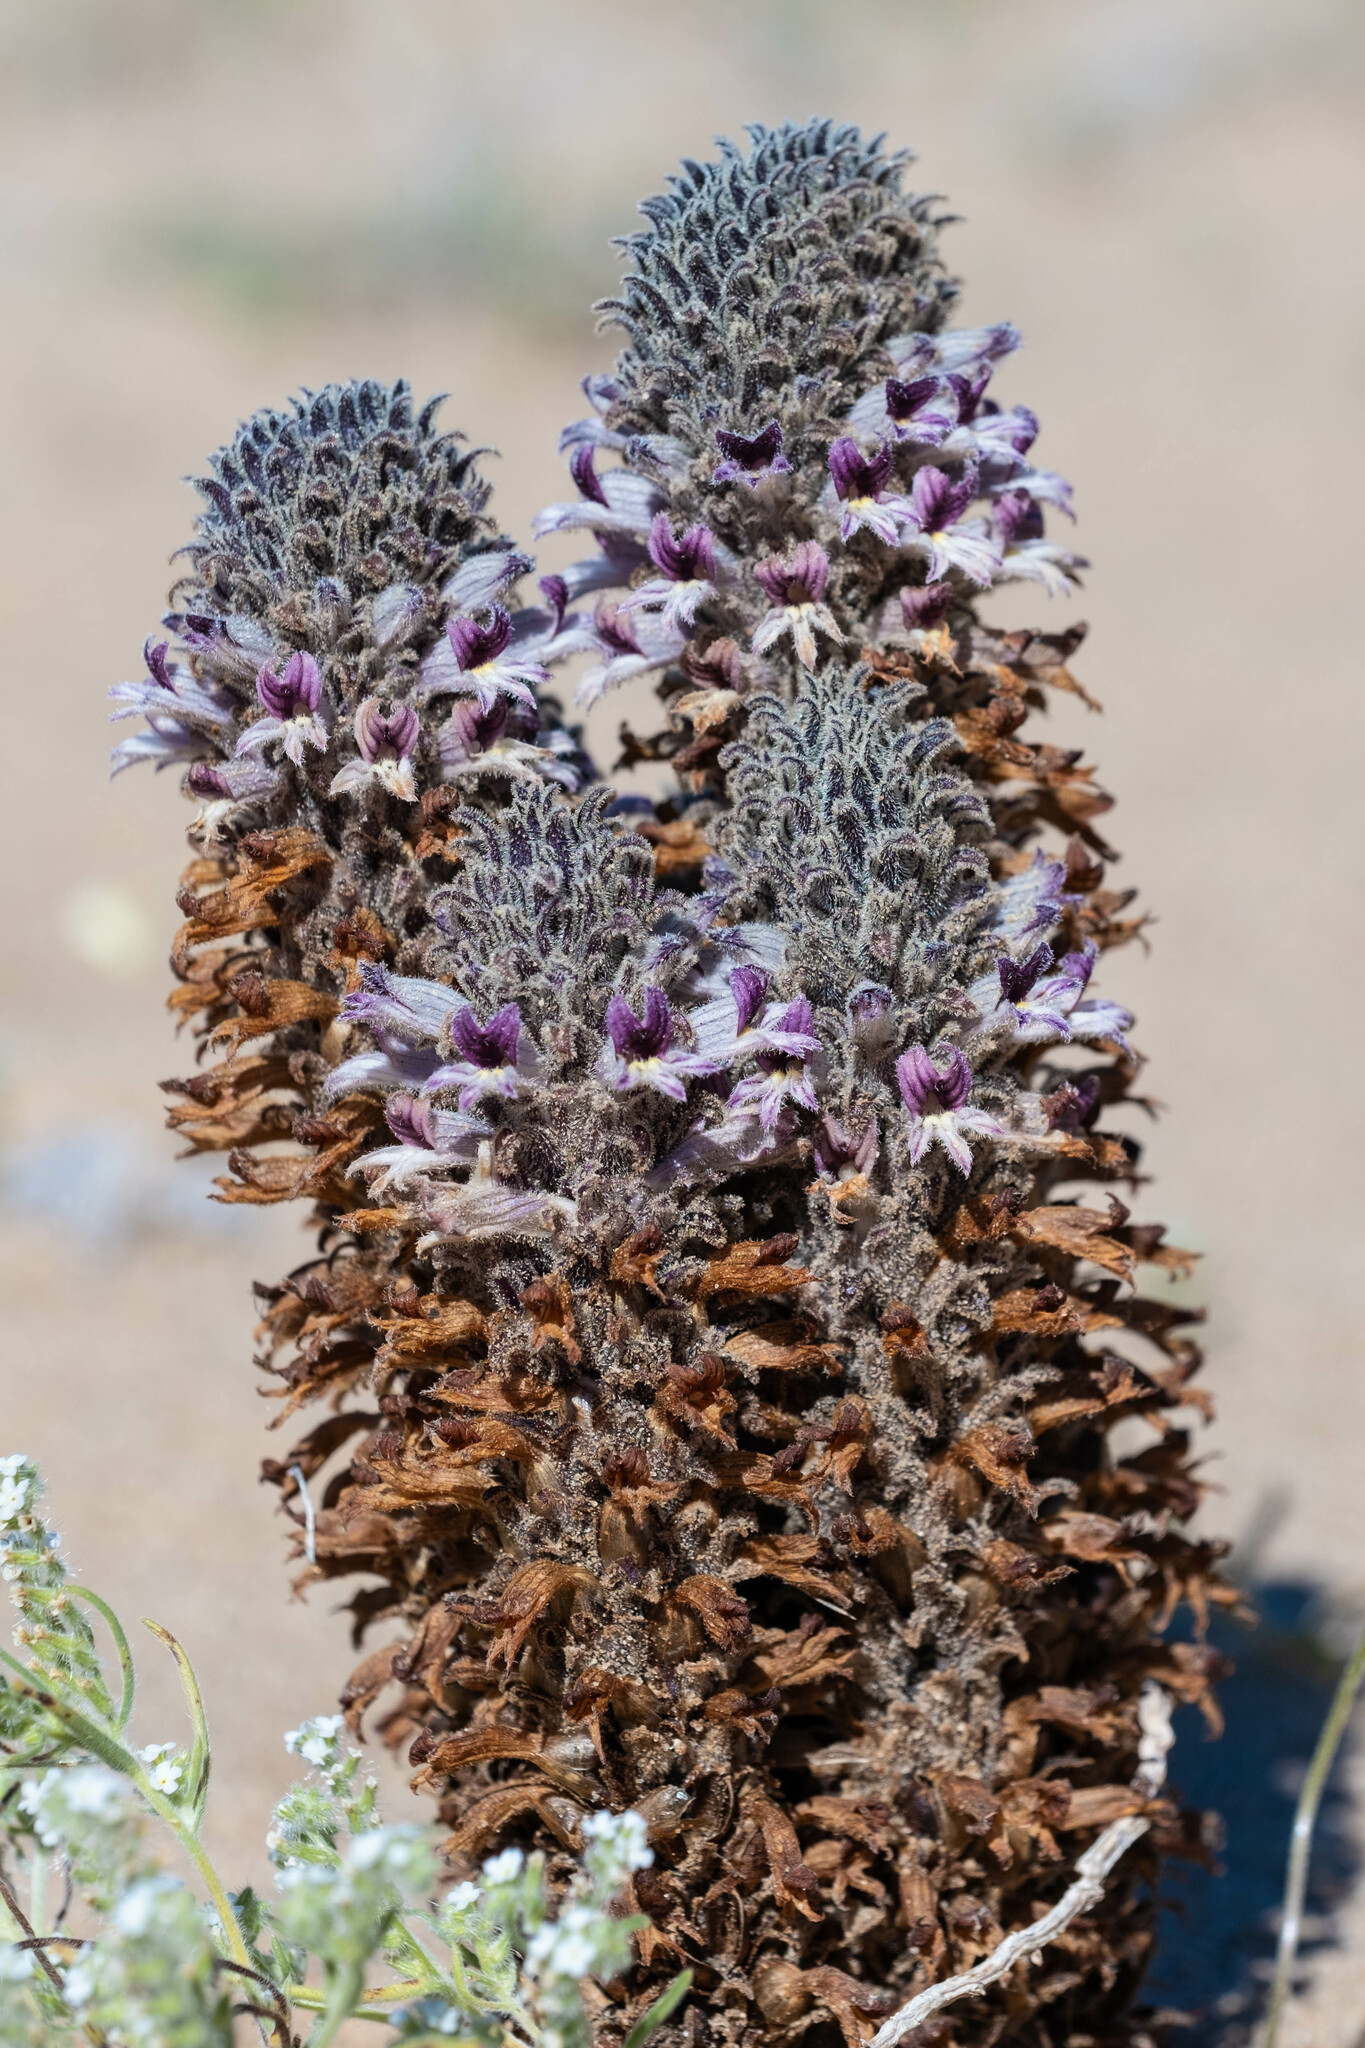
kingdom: Plantae
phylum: Tracheophyta
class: Magnoliopsida
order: Lamiales
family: Orobanchaceae
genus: Aphyllon
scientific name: Aphyllon cooperi
